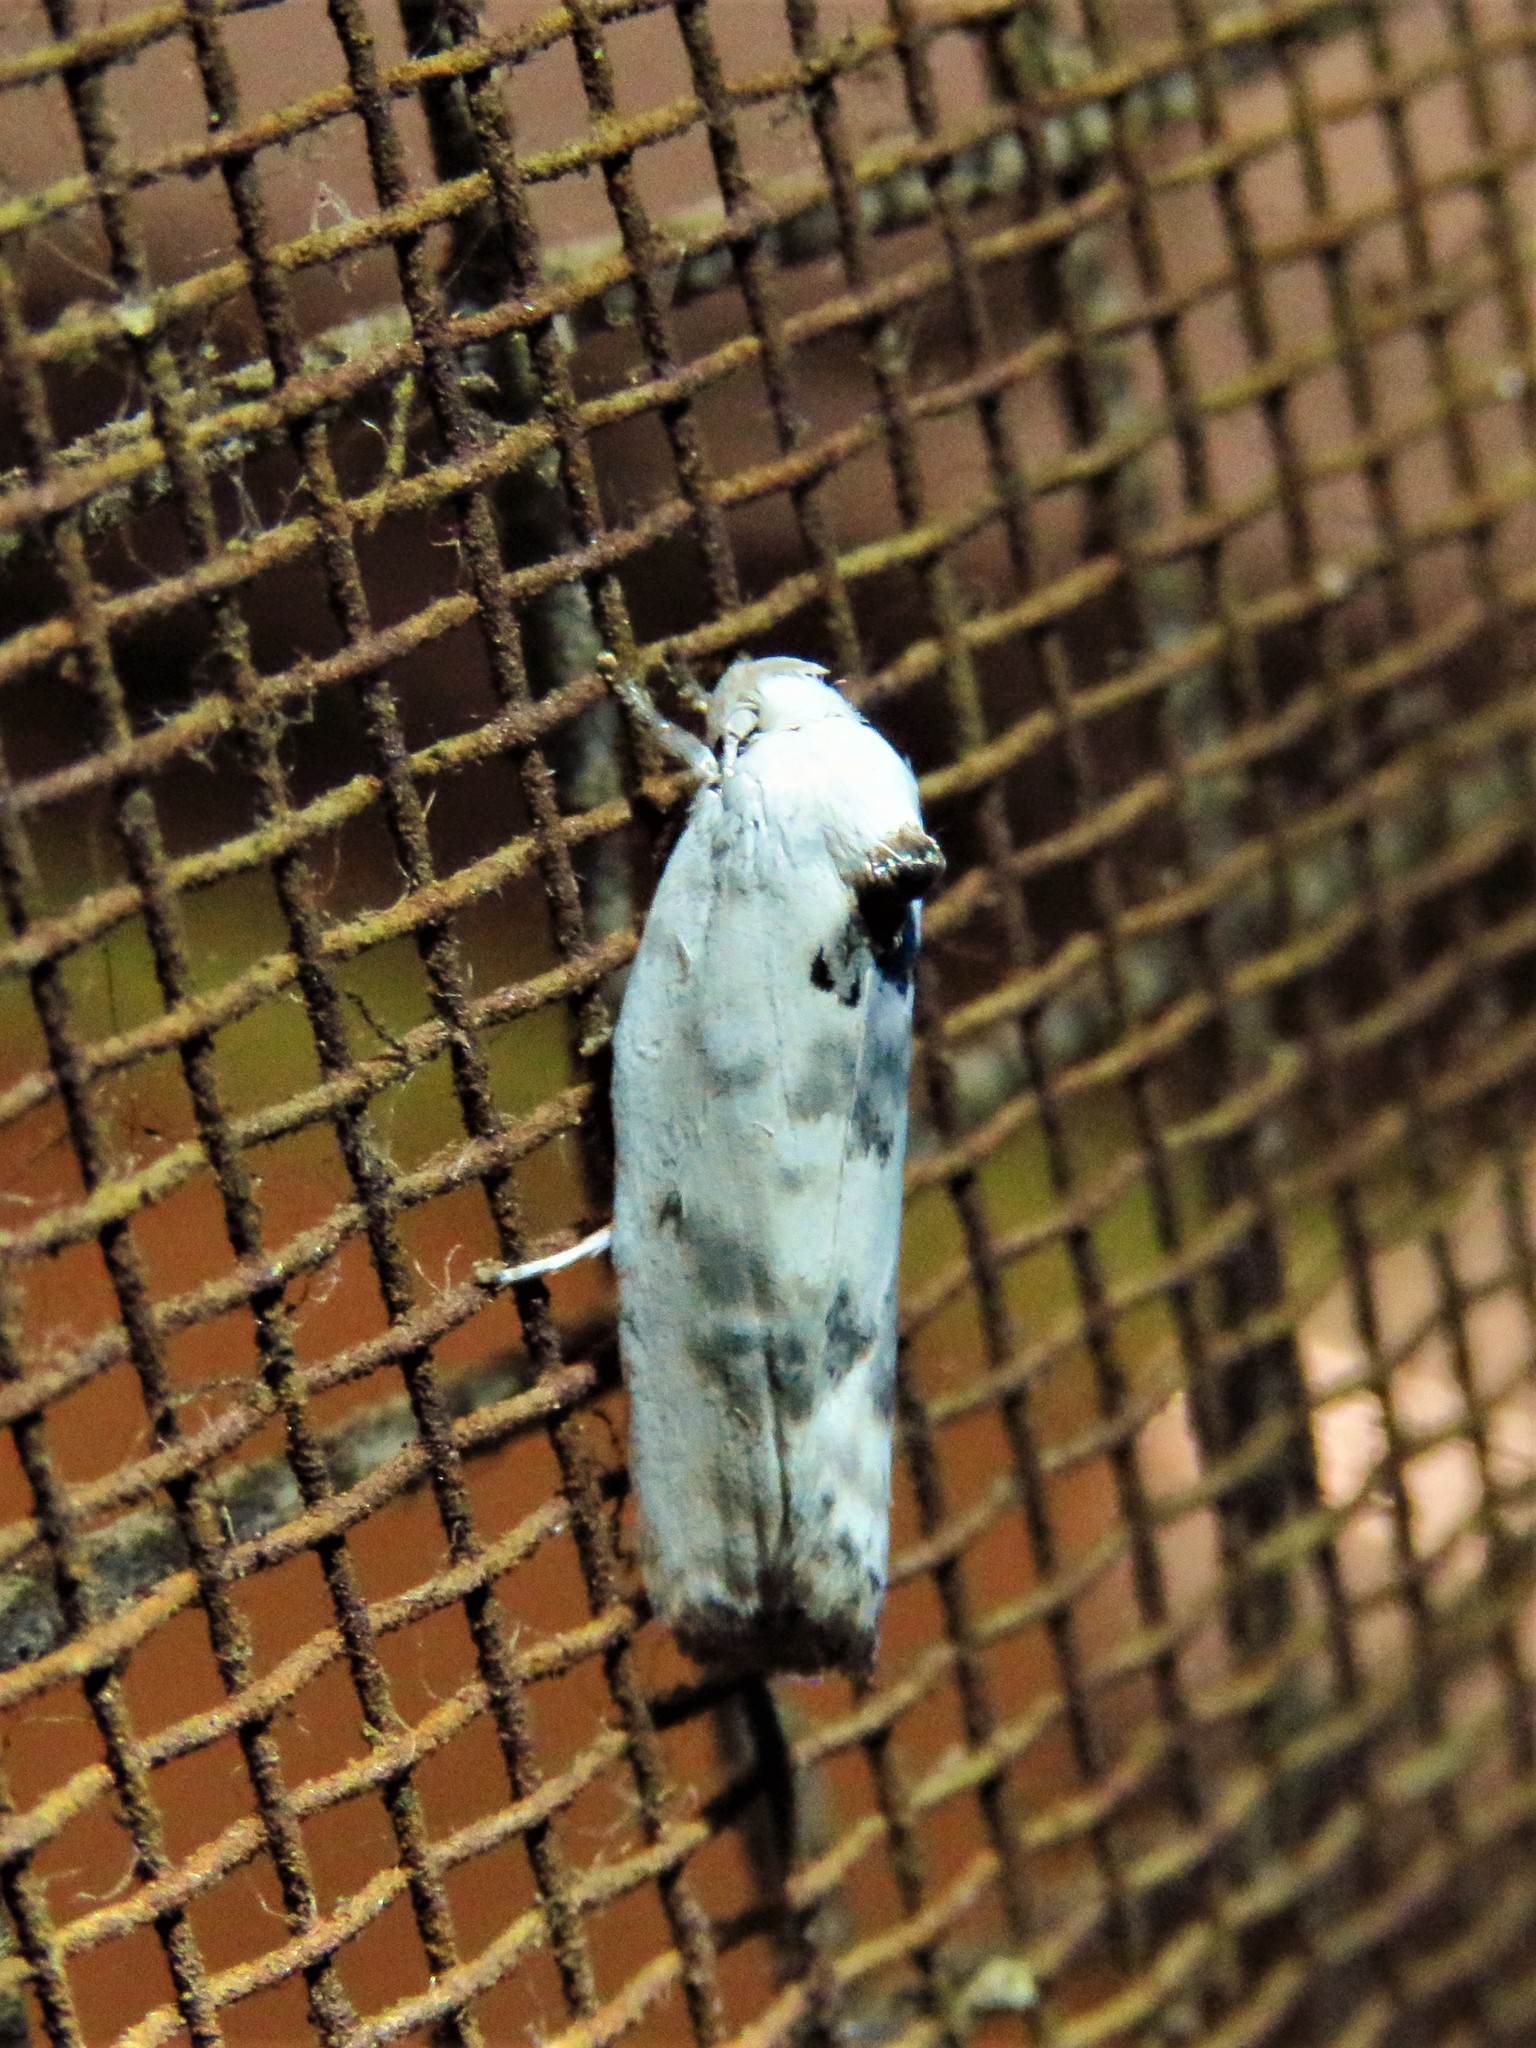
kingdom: Animalia
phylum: Arthropoda
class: Insecta
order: Lepidoptera
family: Depressariidae
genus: Antaeotricha
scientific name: Antaeotricha leucillana
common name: Pale gray bird-dropping moth
